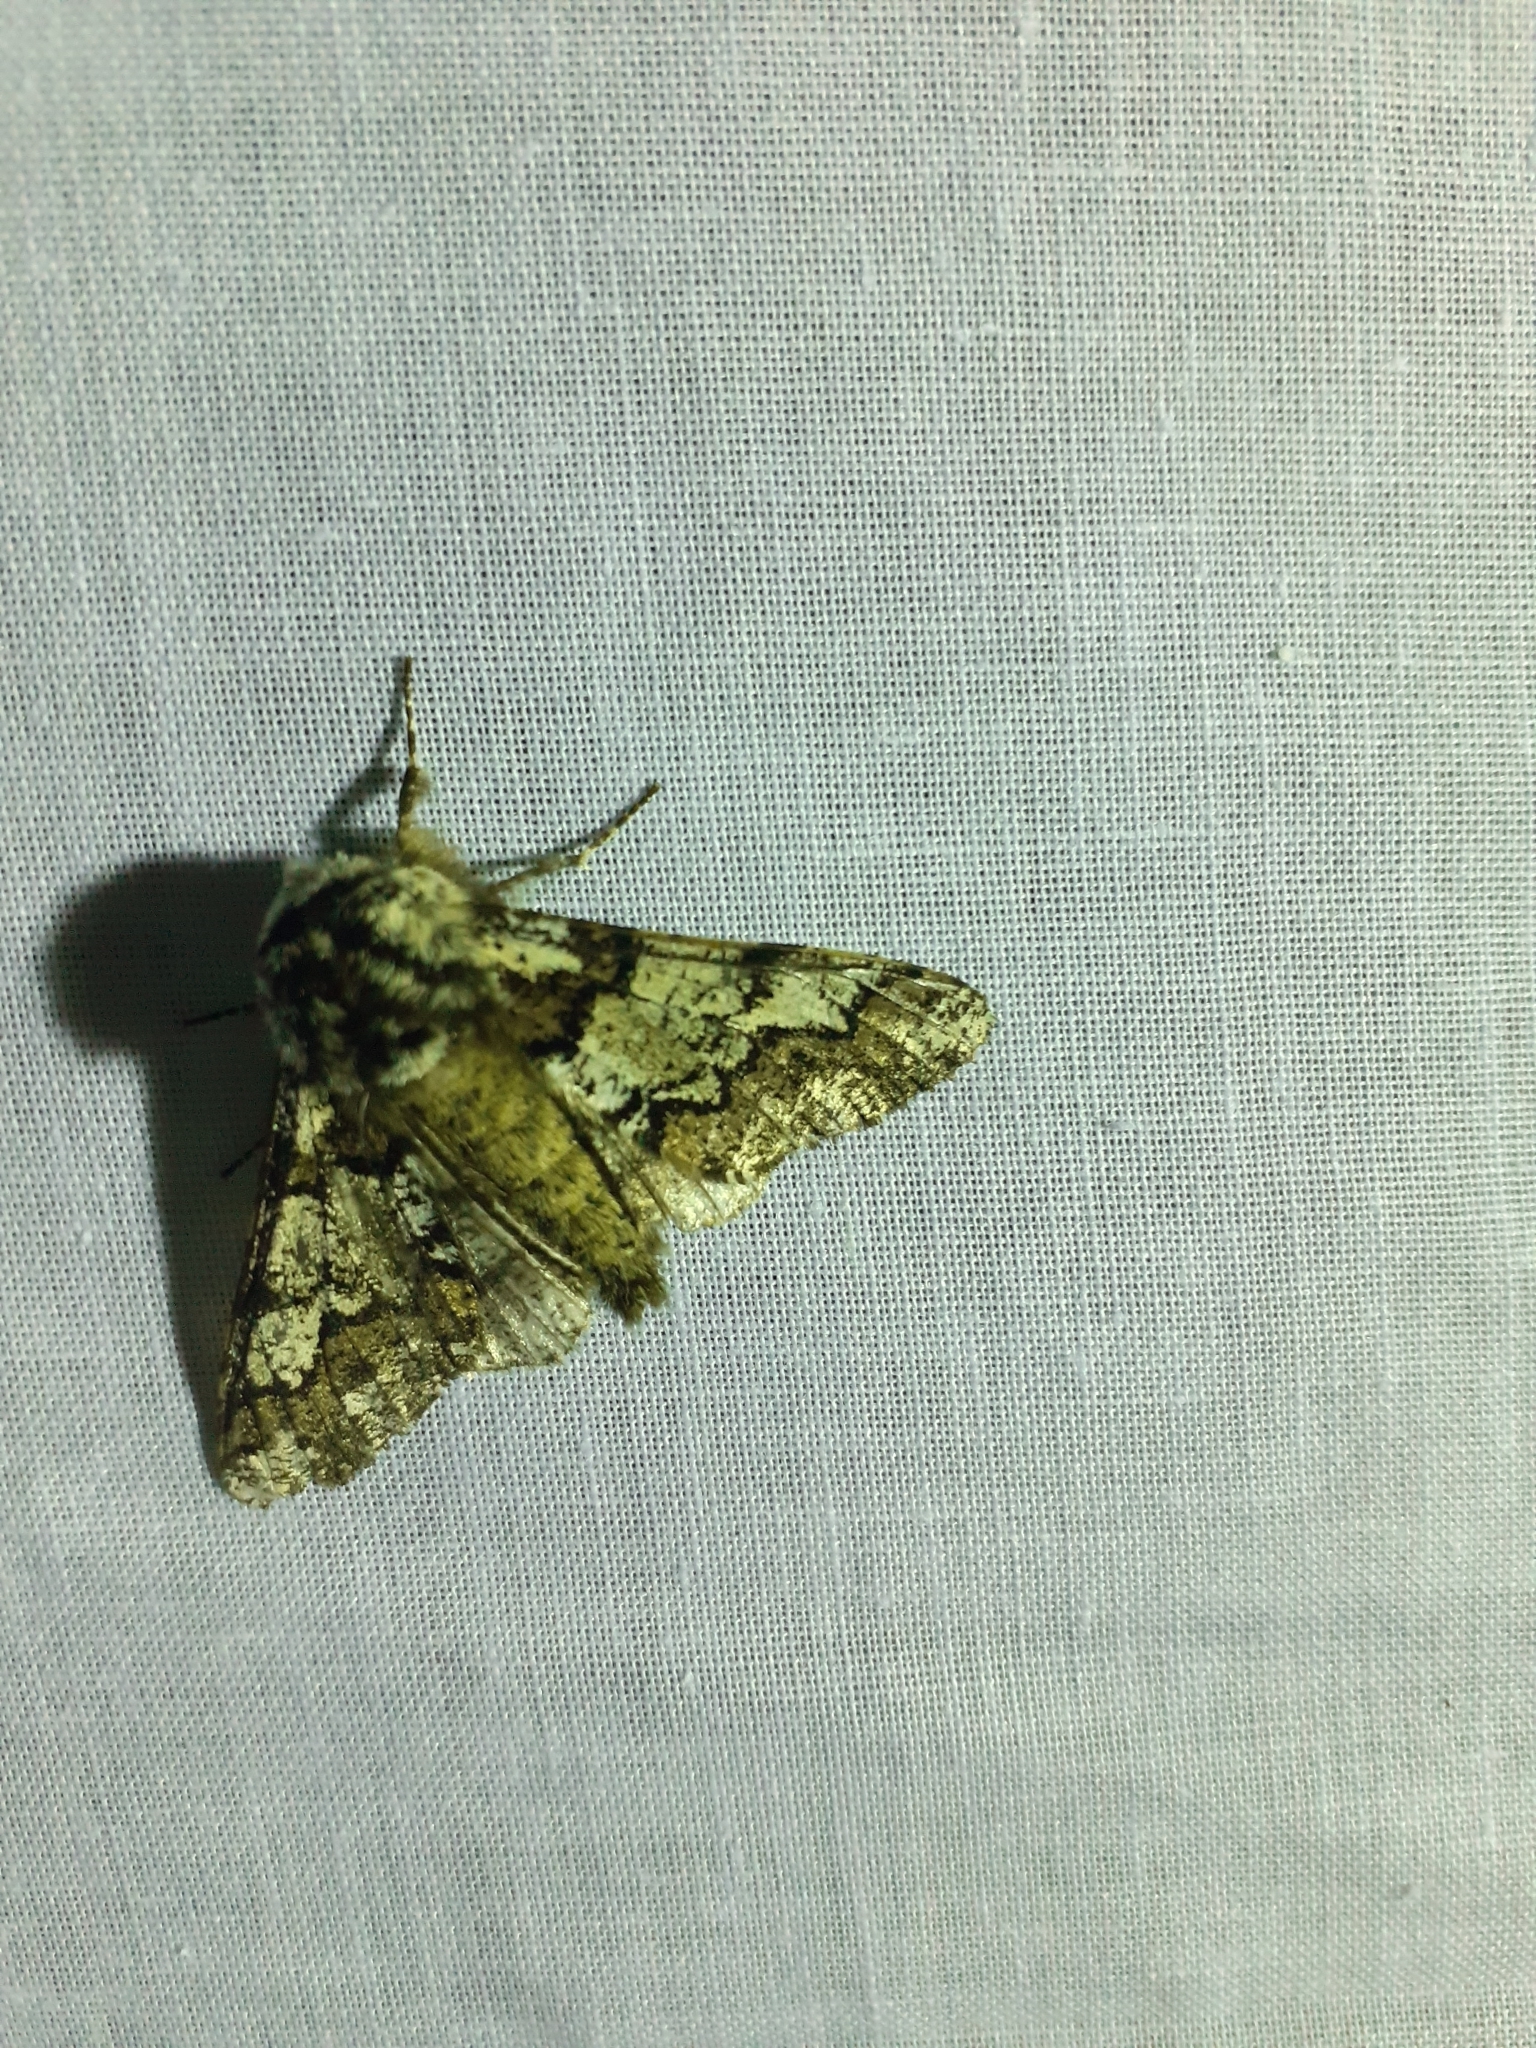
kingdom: Animalia
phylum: Arthropoda
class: Insecta
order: Lepidoptera
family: Geometridae
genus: Biston
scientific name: Biston strataria
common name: Oak beauty
